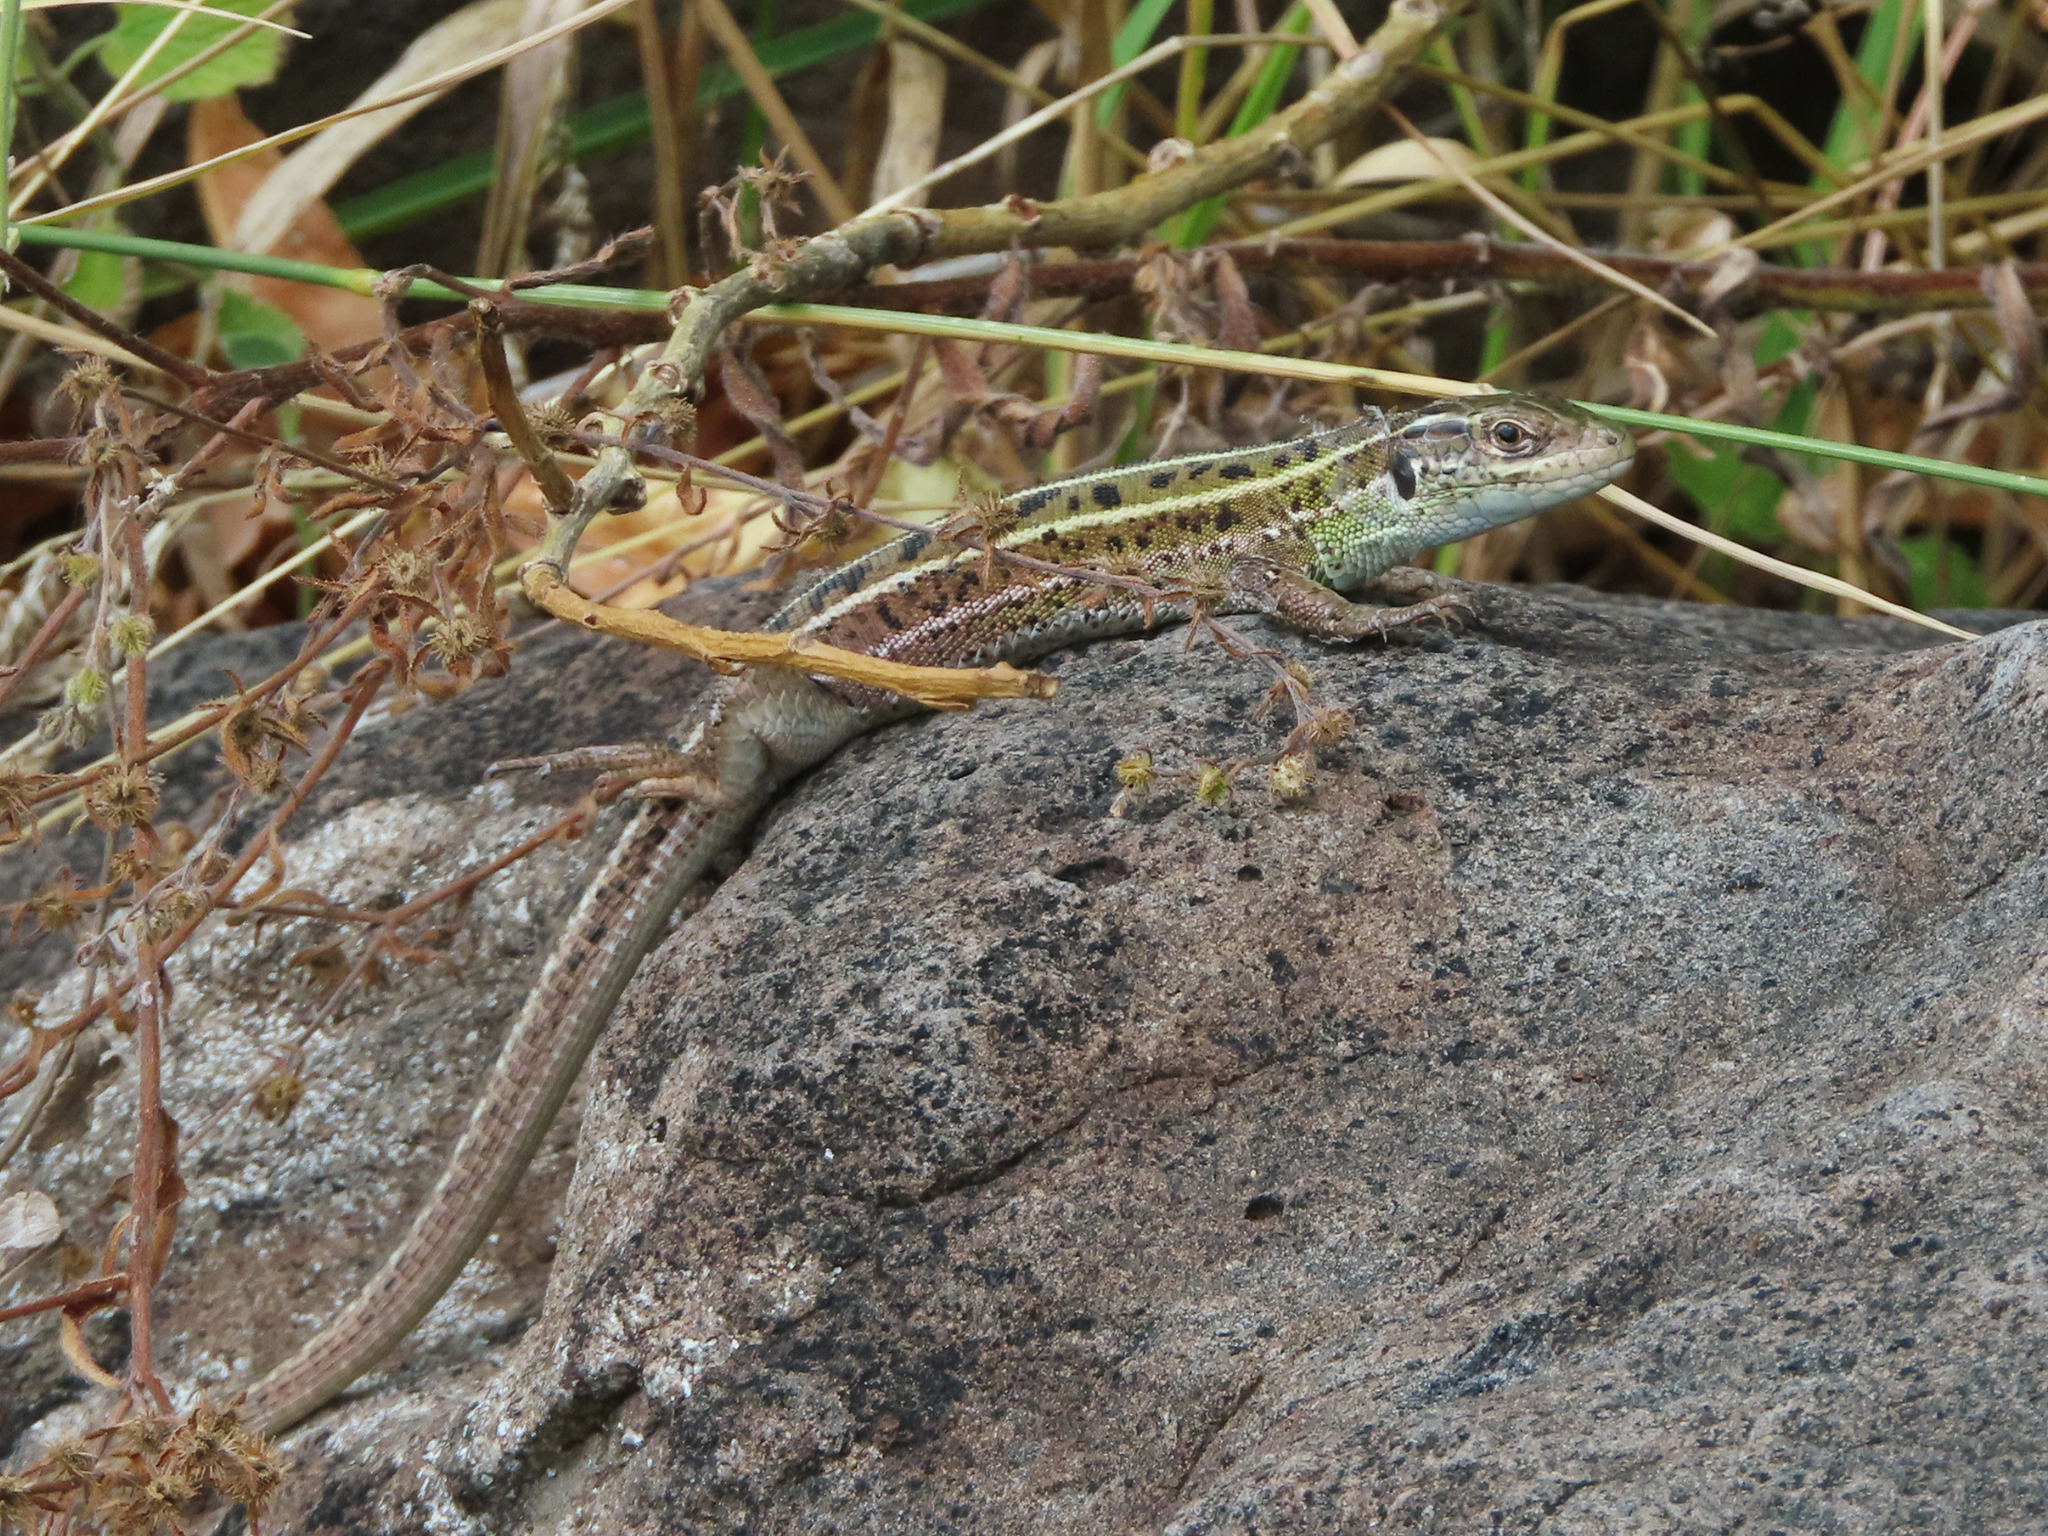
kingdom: Animalia
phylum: Chordata
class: Squamata
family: Lacertidae
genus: Lacerta
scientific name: Lacerta strigata
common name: Caspian green lizard
